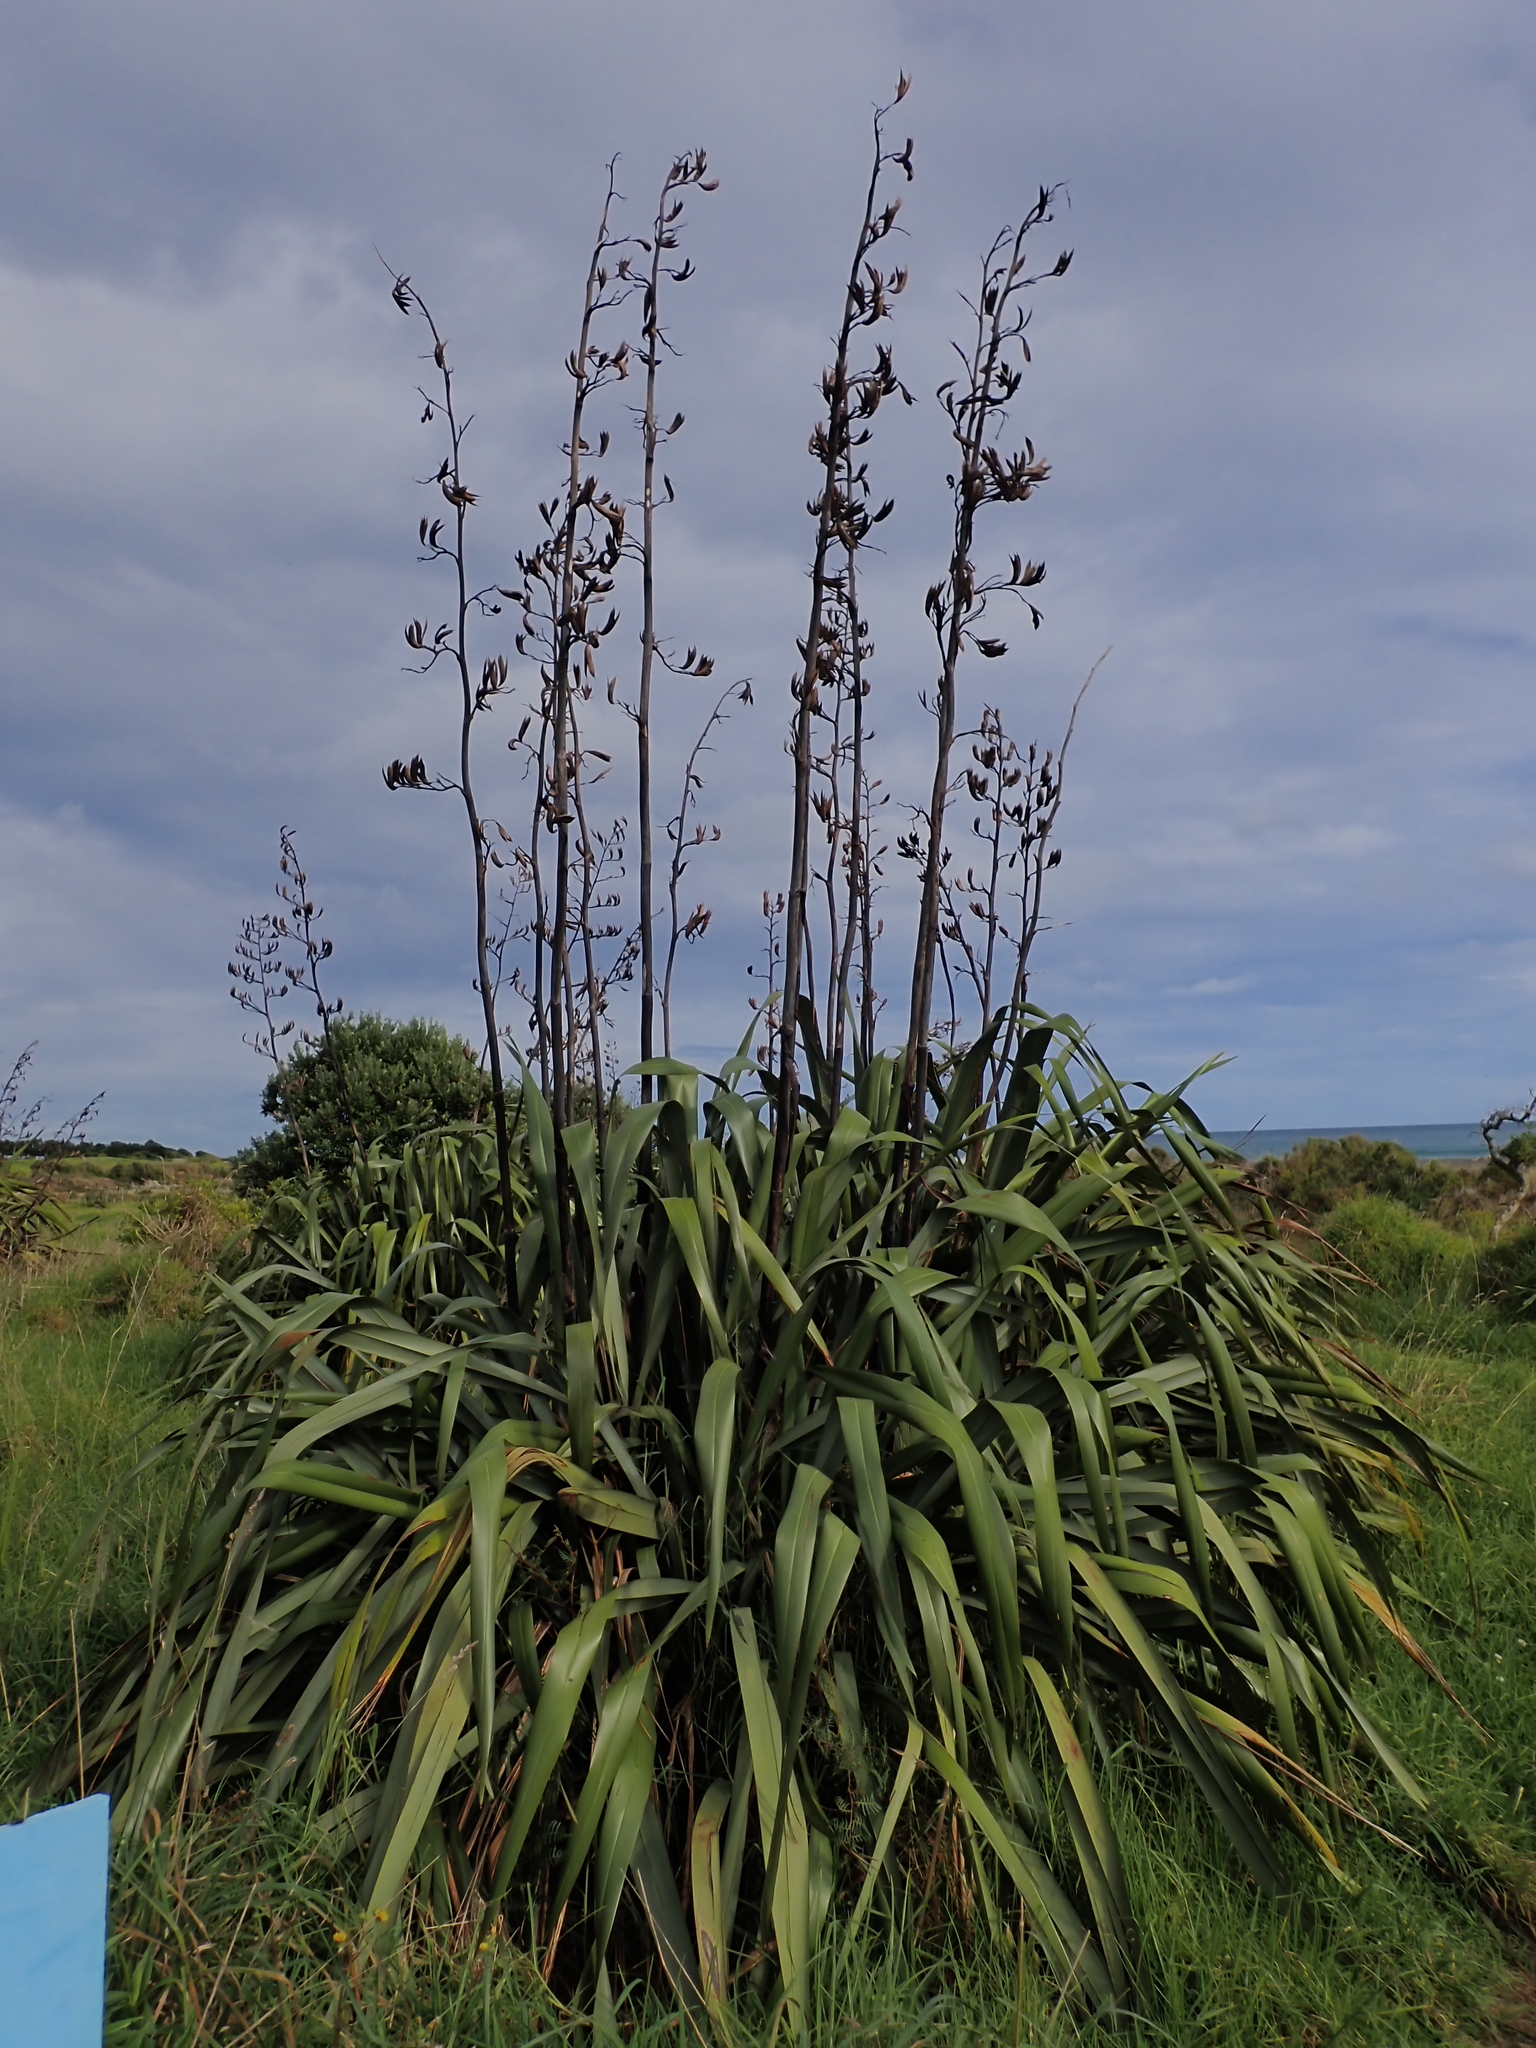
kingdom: Plantae
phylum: Tracheophyta
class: Liliopsida
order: Asparagales
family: Asphodelaceae
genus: Phormium
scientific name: Phormium tenax
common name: New zealand flax
